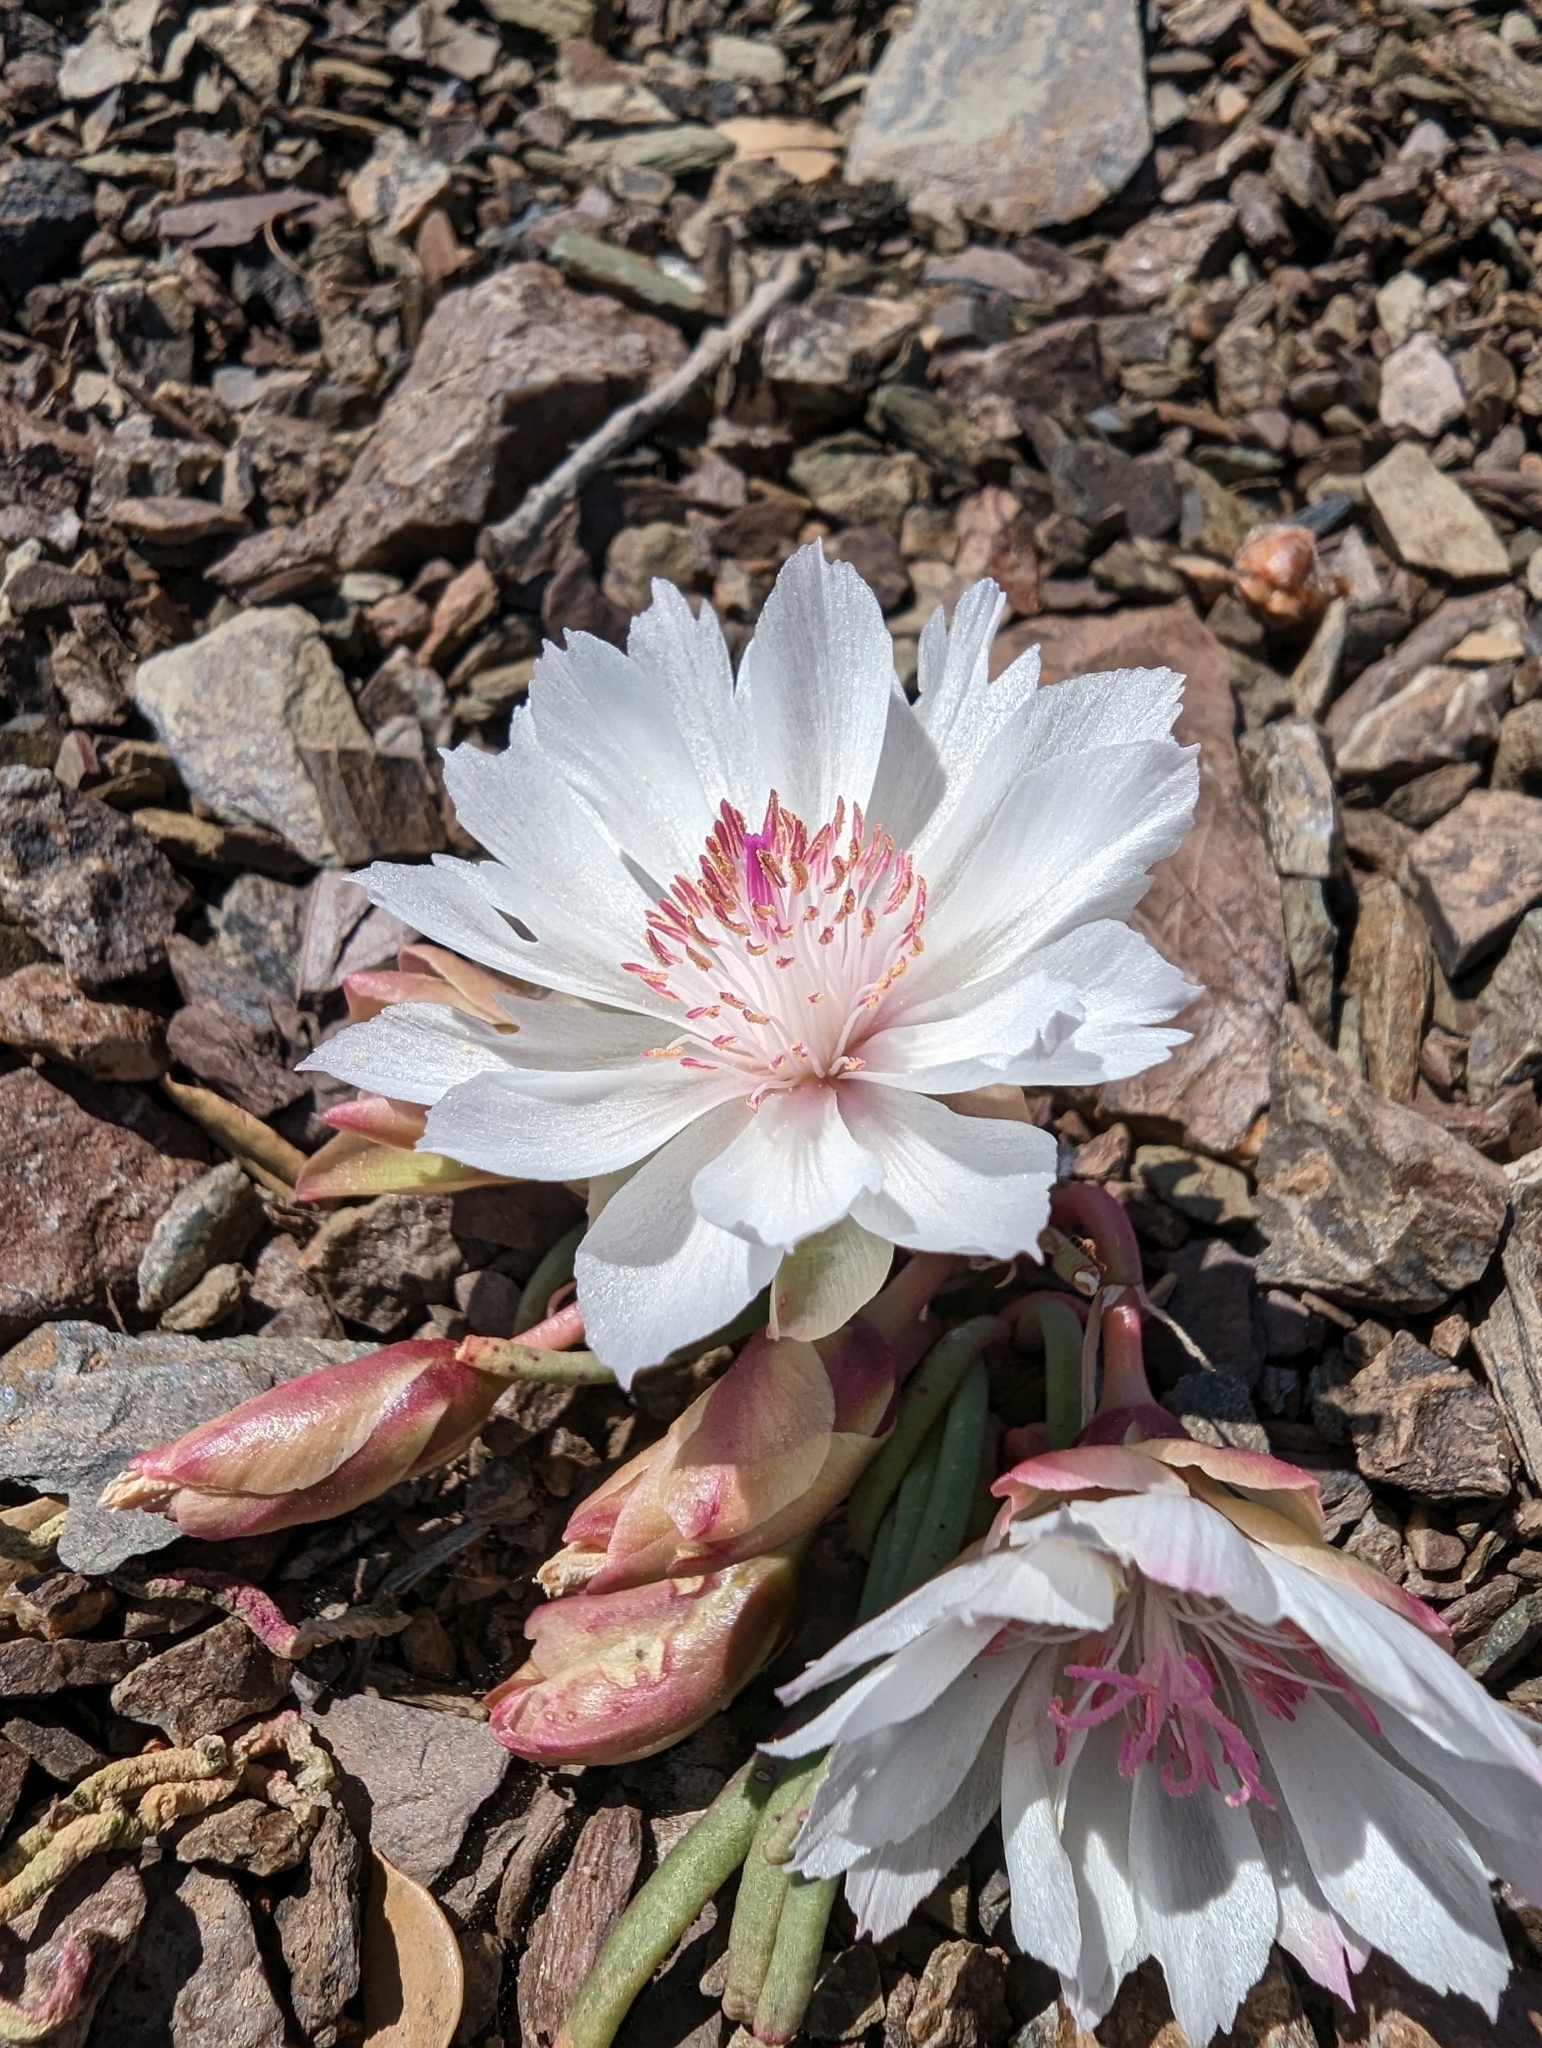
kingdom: Plantae
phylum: Tracheophyta
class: Magnoliopsida
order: Caryophyllales
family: Montiaceae
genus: Lewisia
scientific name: Lewisia rediviva
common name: Bitter-root
